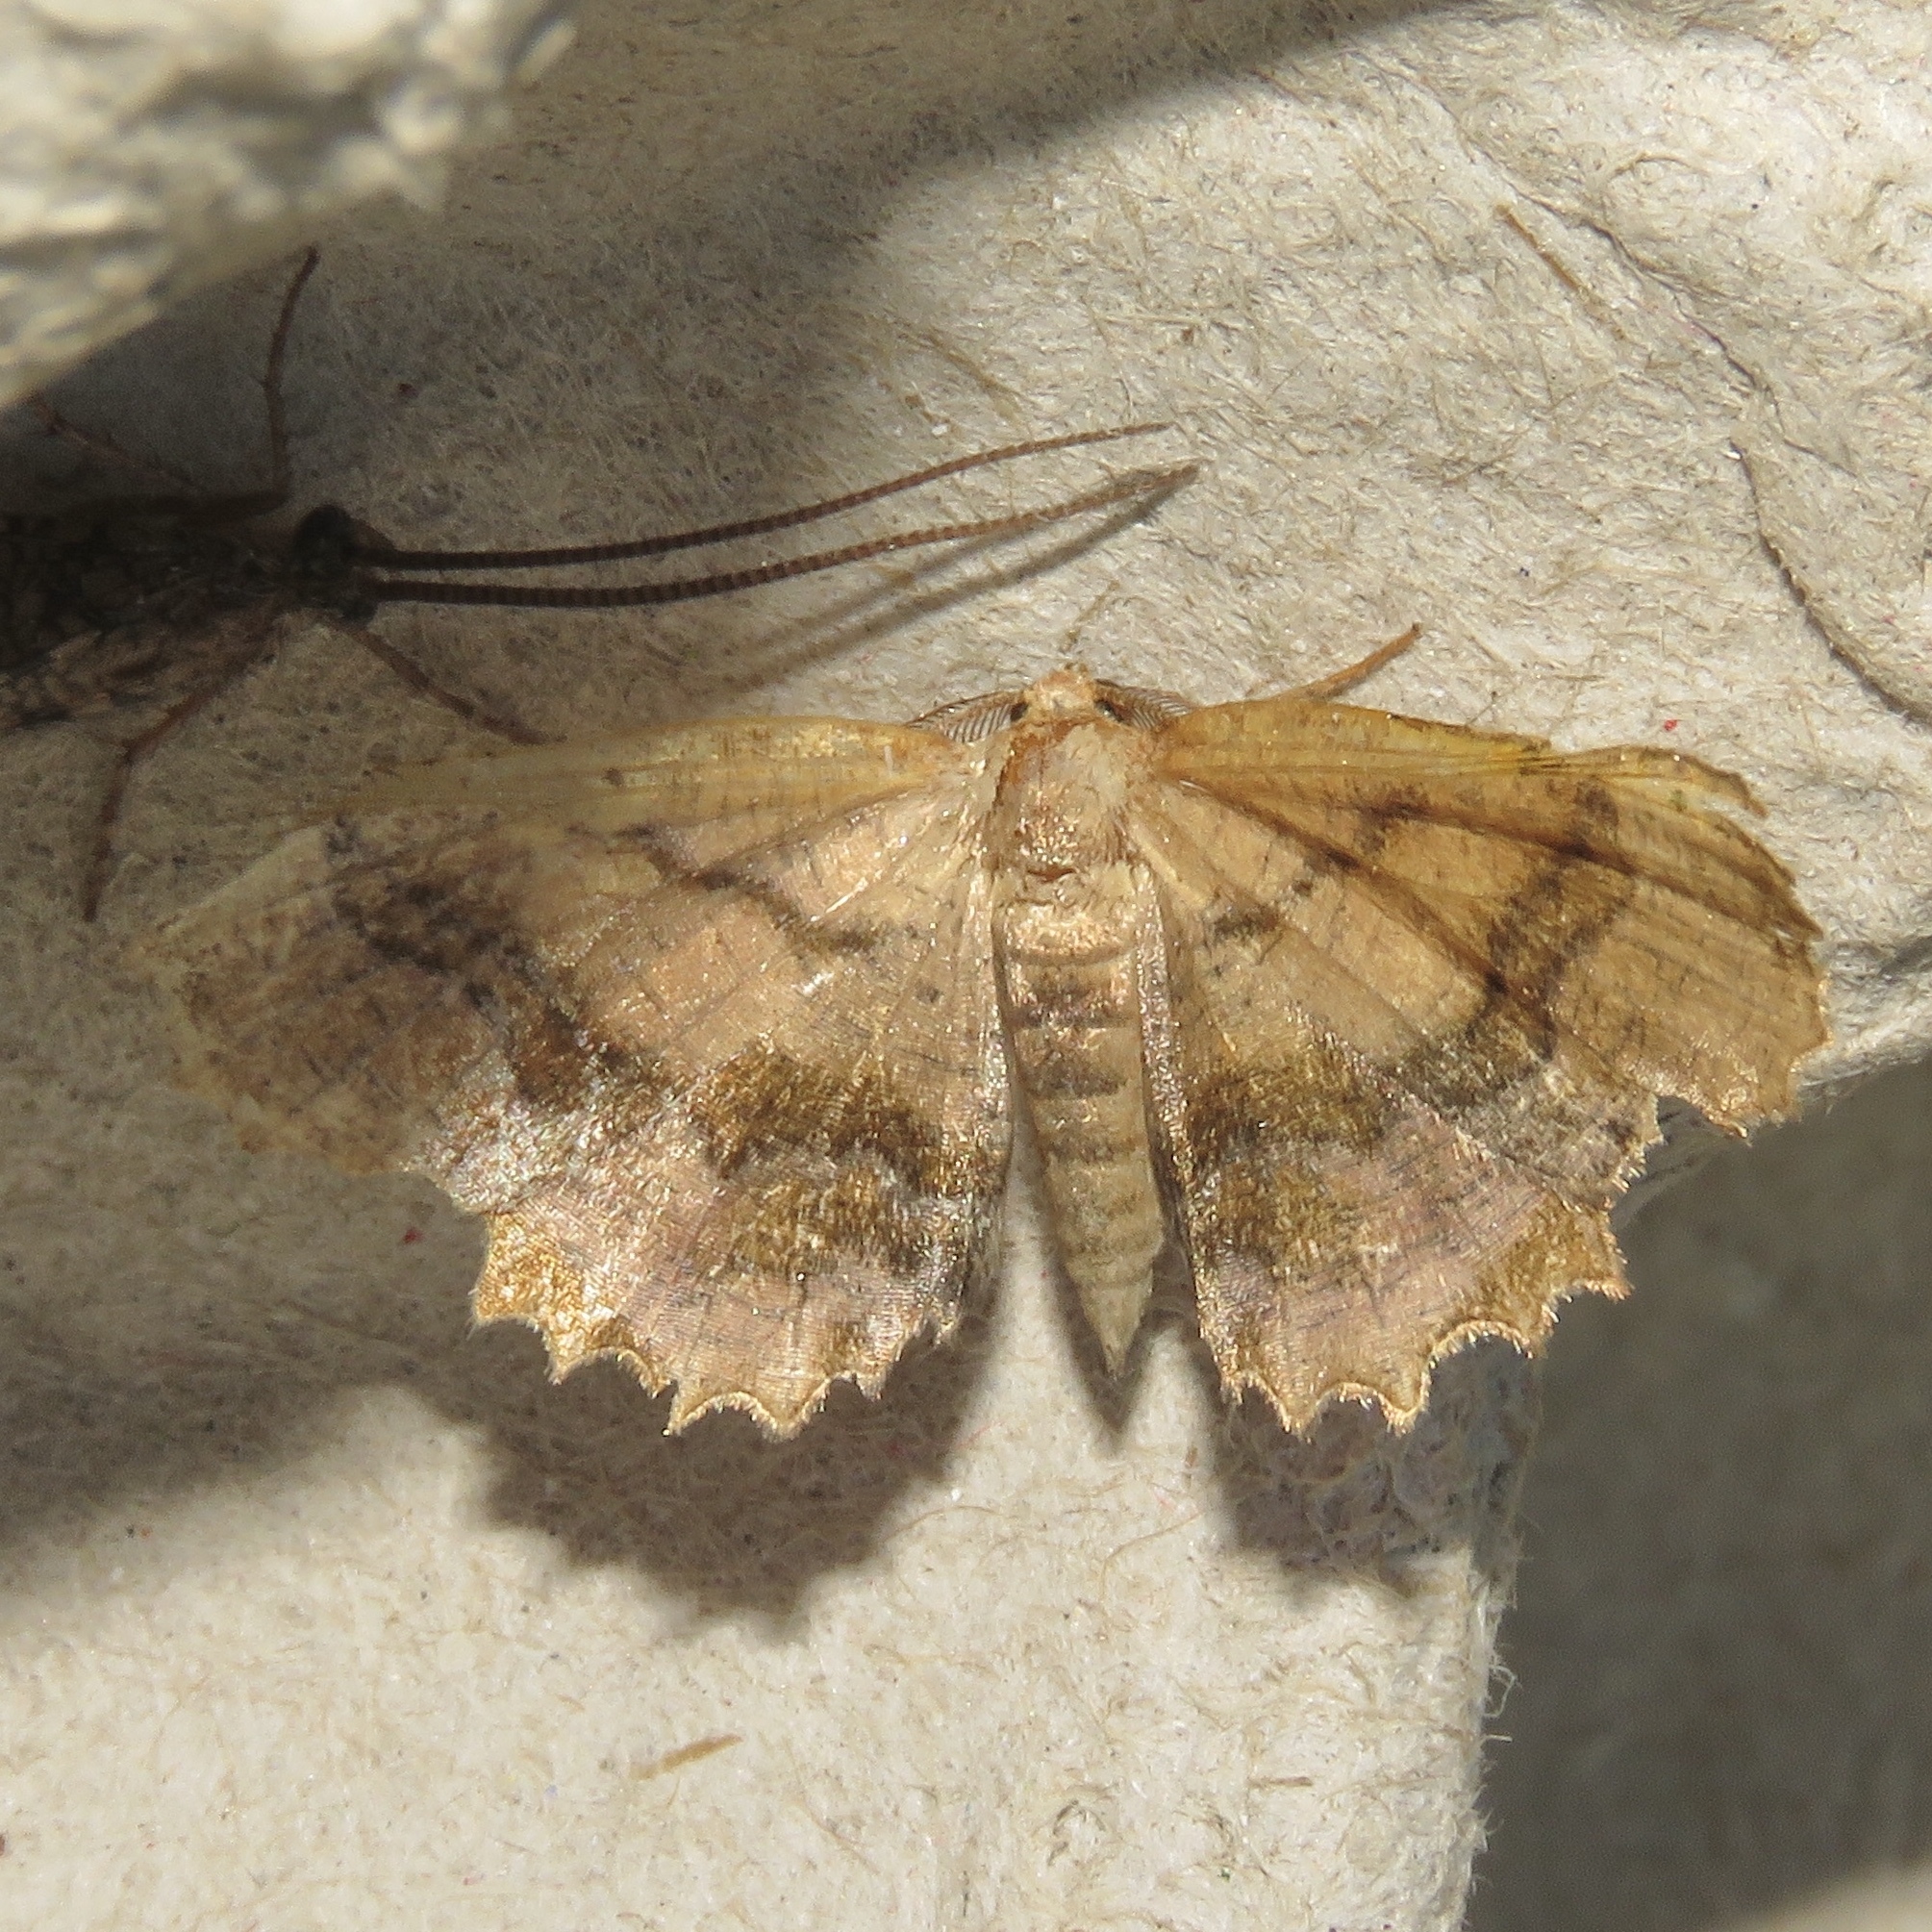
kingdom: Animalia
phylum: Arthropoda
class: Insecta
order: Lepidoptera
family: Geometridae
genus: Cepphis
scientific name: Cepphis armataria
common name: Scallop moth
